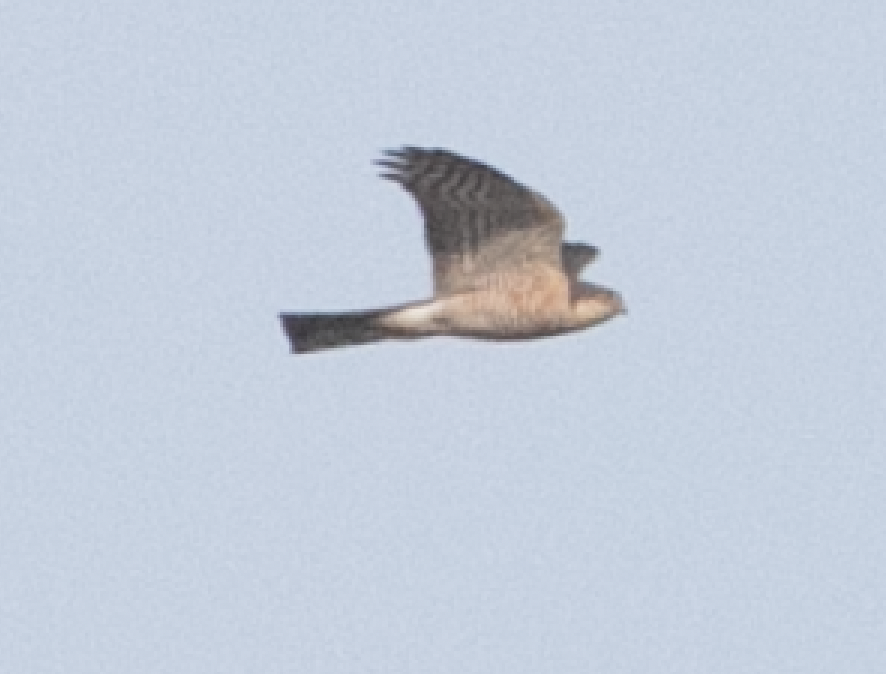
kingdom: Animalia
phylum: Chordata
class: Aves
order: Accipitriformes
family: Accipitridae
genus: Accipiter
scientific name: Accipiter nisus
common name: Eurasian sparrowhawk
